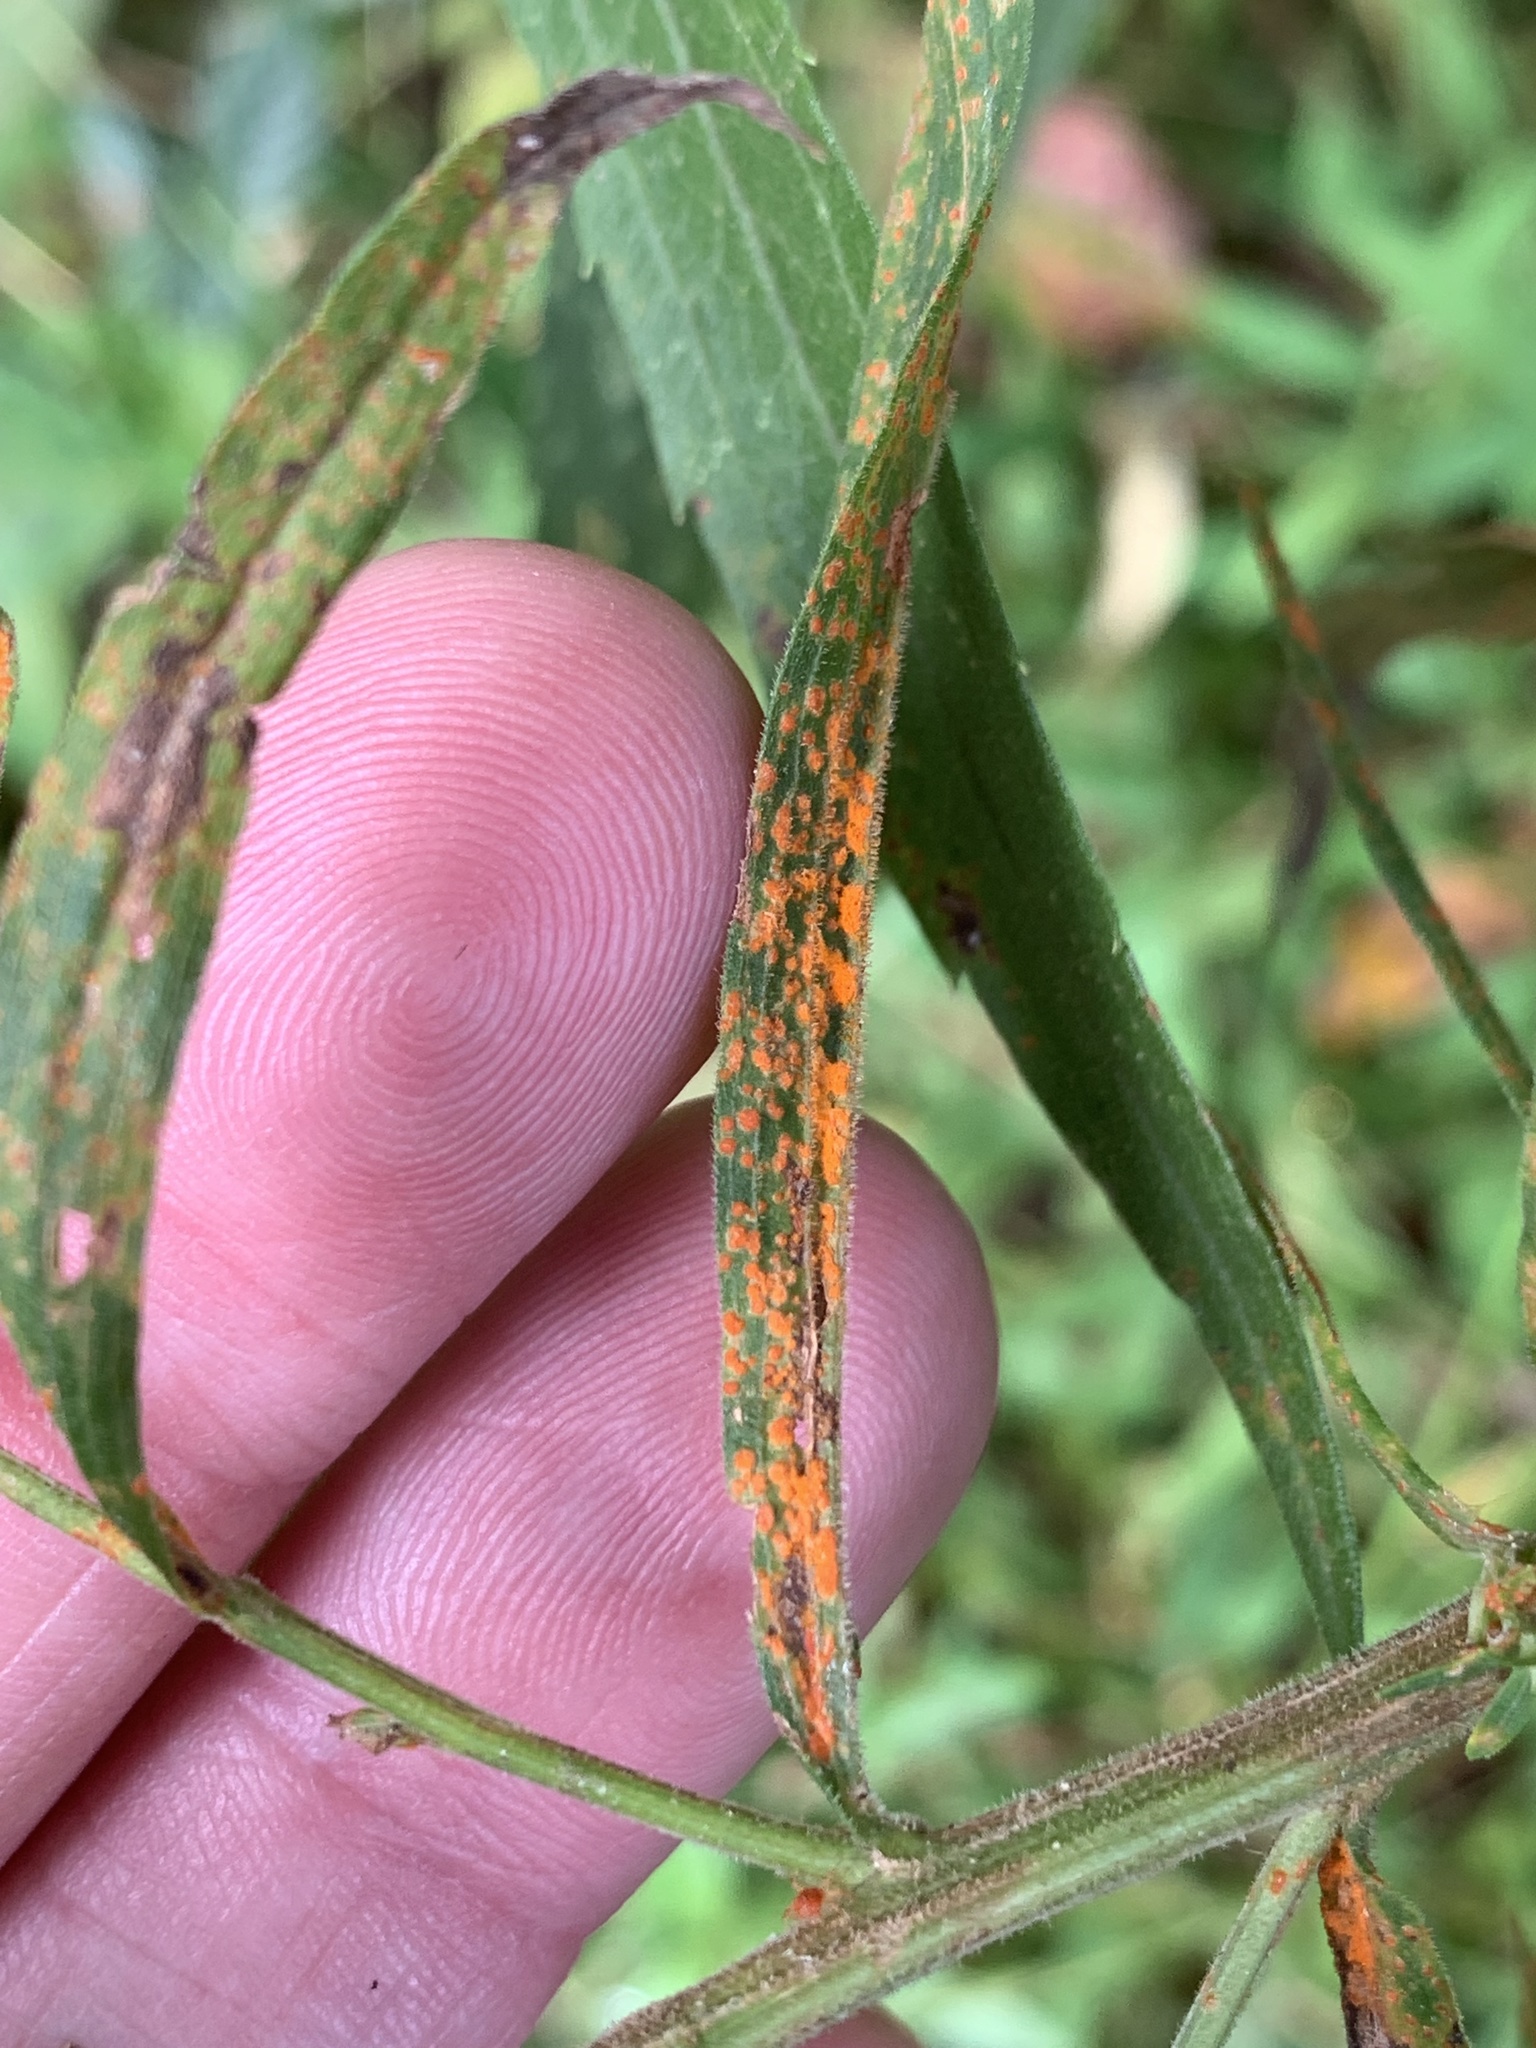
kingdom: Fungi
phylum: Basidiomycota
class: Pucciniomycetes
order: Pucciniales
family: Coleosporiaceae
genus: Coleosporium
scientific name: Coleosporium asterum
